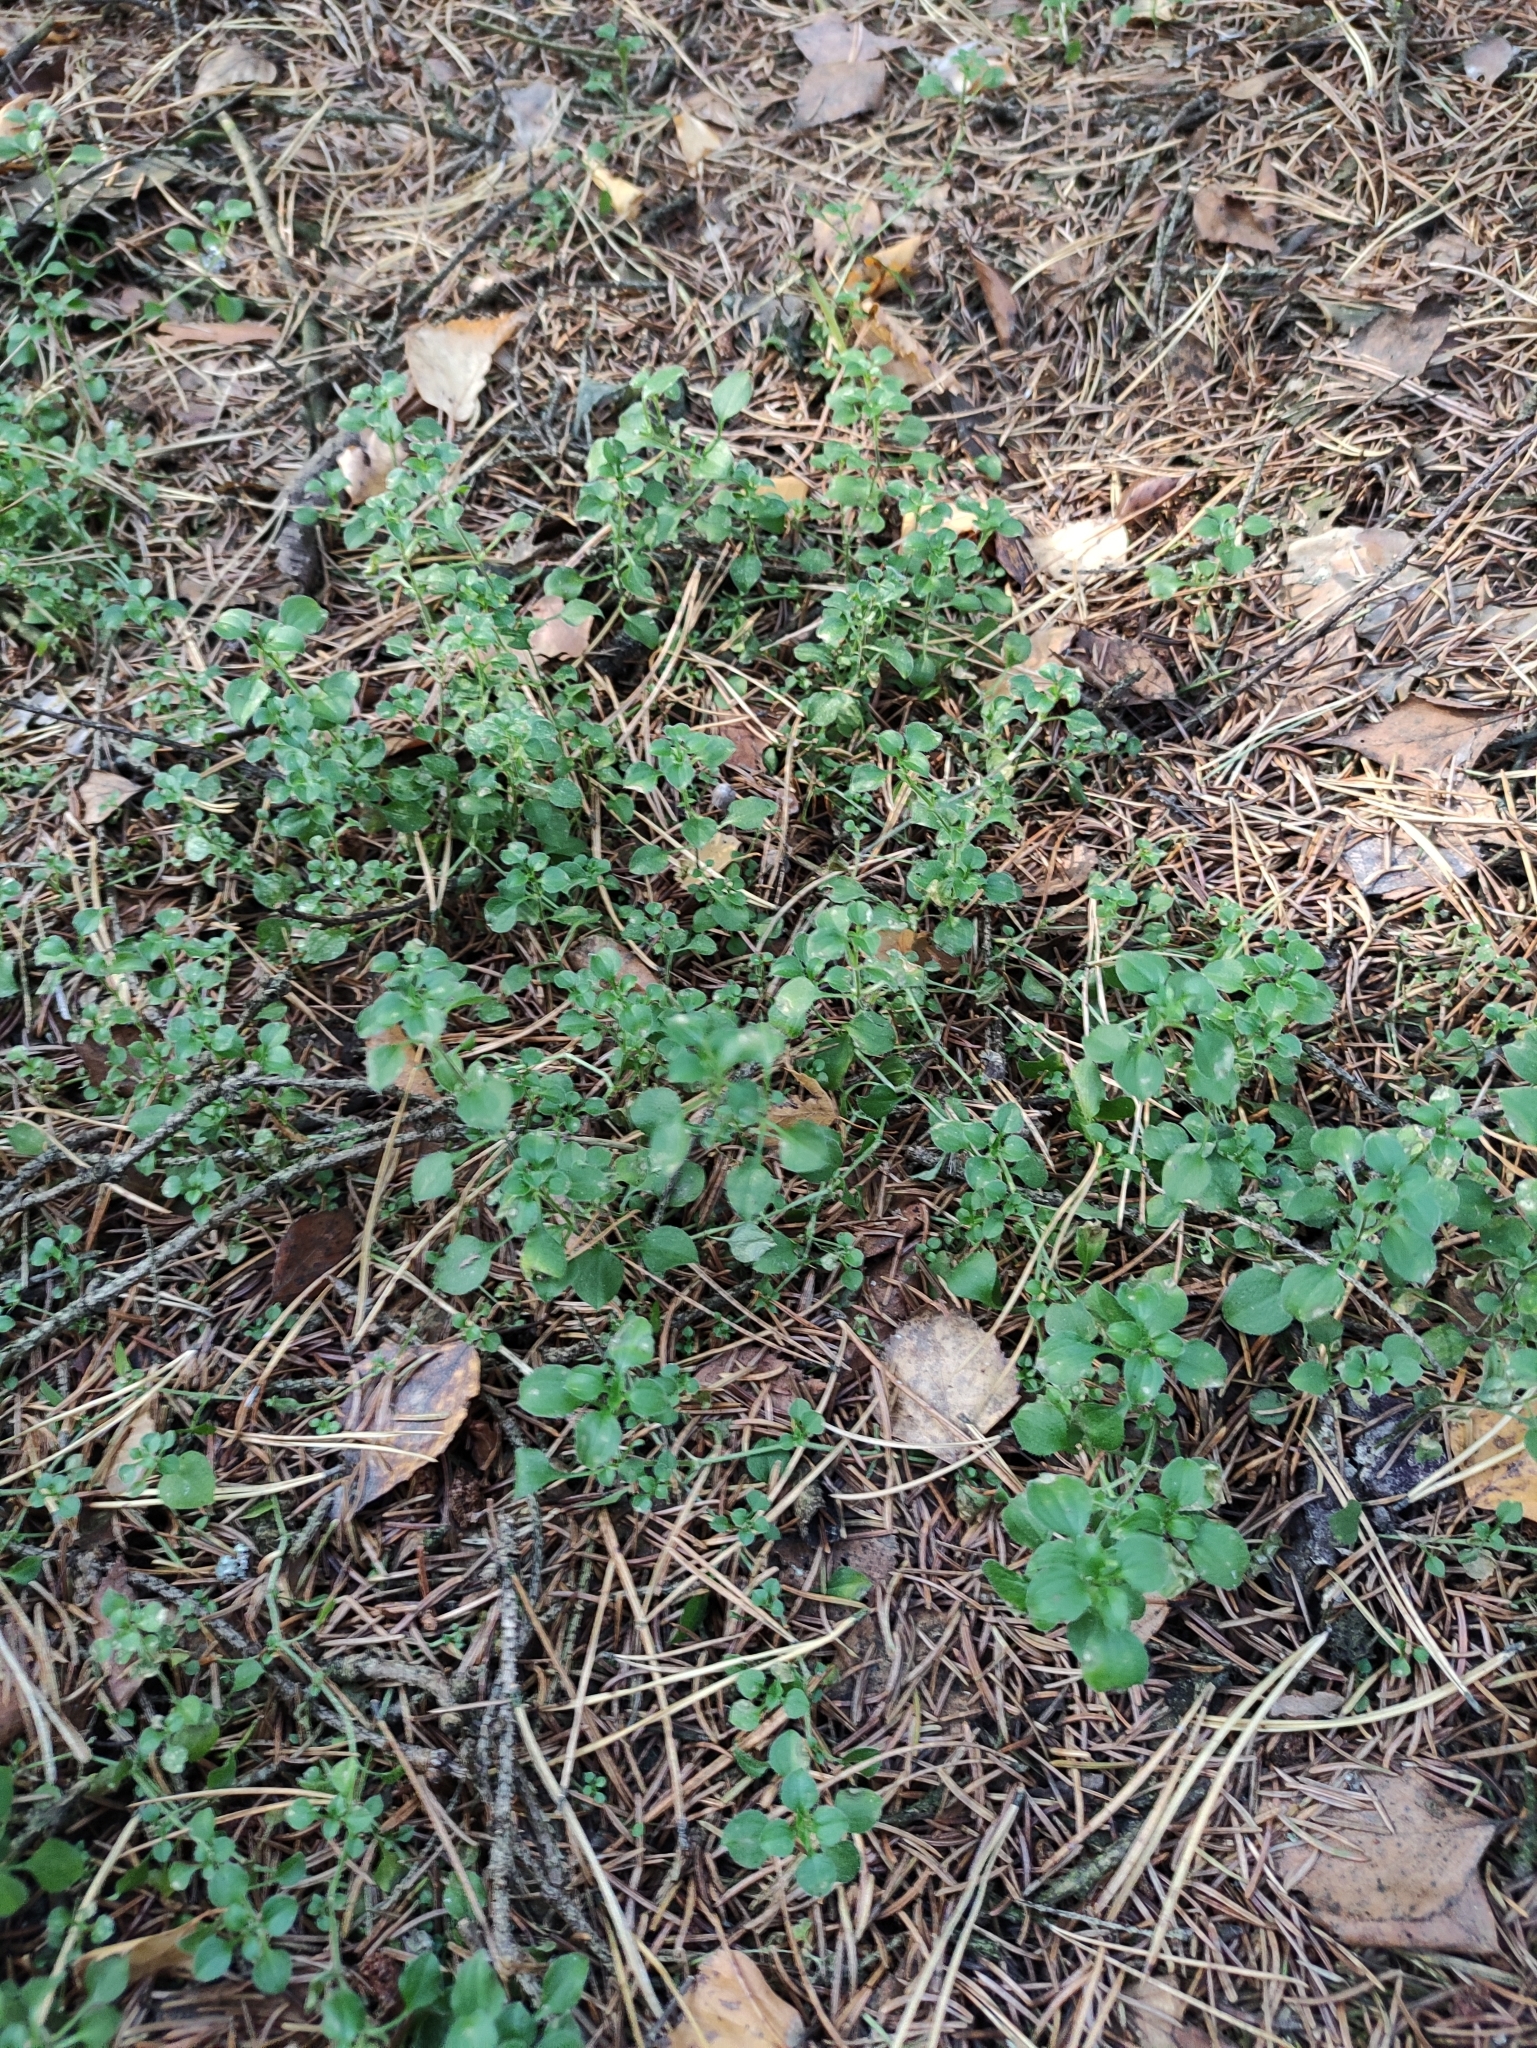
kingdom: Plantae
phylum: Tracheophyta
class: Magnoliopsida
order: Caryophyllales
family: Caryophyllaceae
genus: Moehringia
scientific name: Moehringia trinervia
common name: Three-nerved sandwort
